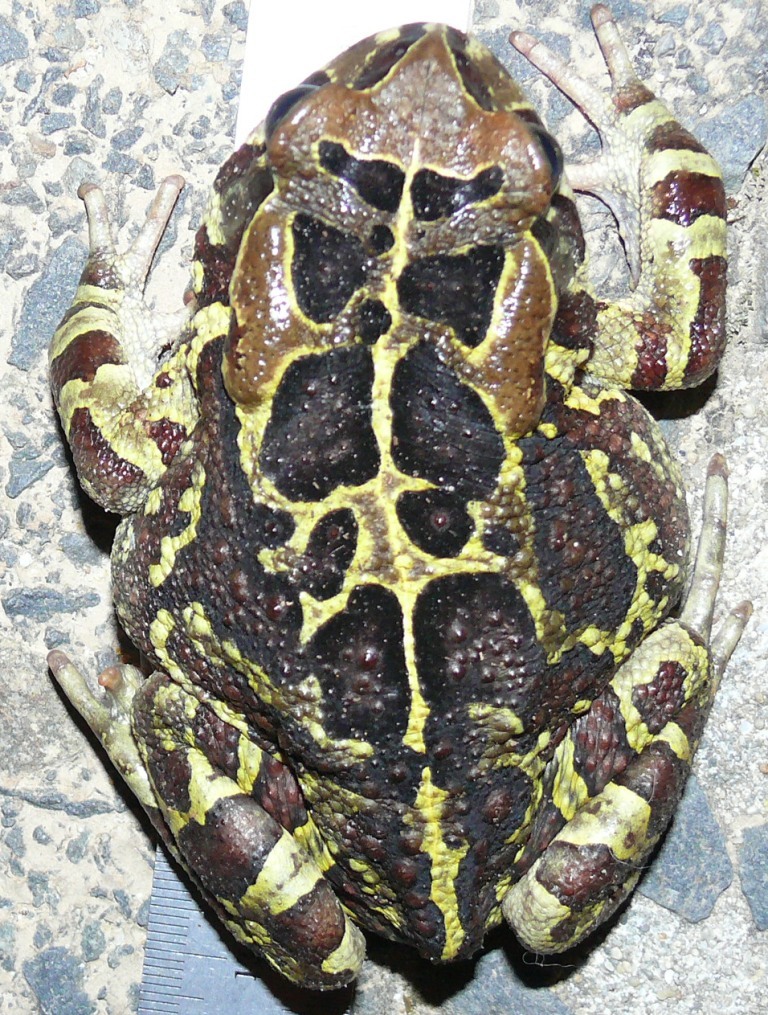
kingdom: Animalia
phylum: Chordata
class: Amphibia
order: Anura
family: Bufonidae
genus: Sclerophrys
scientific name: Sclerophrys pantherina
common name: Panther toad
